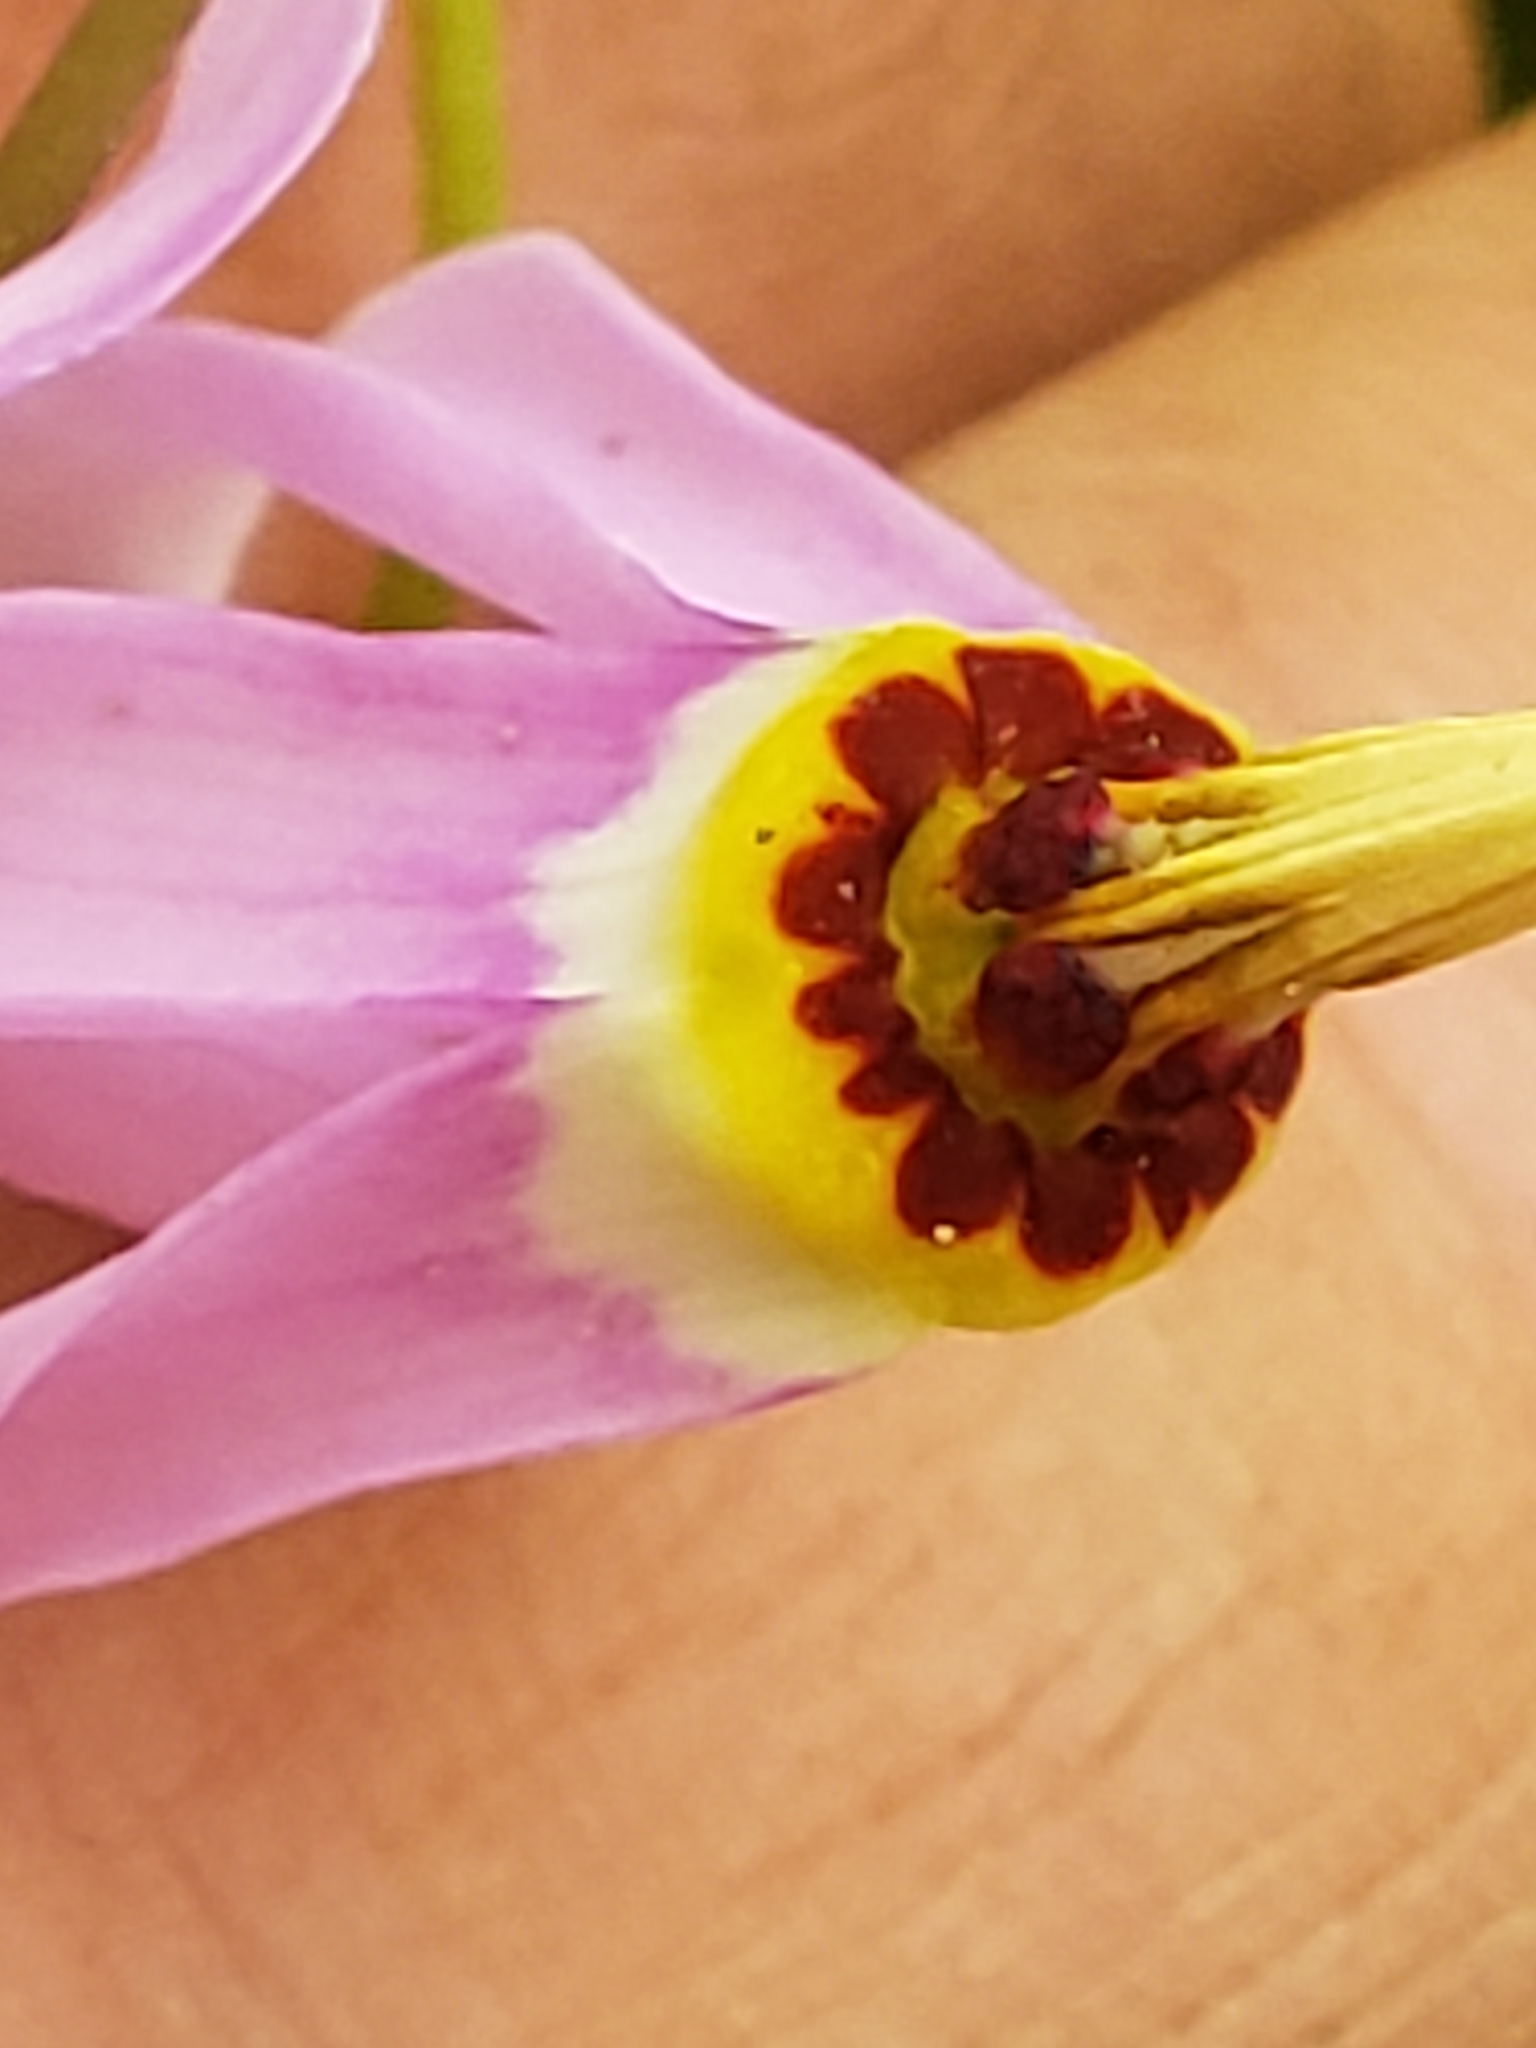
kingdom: Plantae
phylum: Tracheophyta
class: Magnoliopsida
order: Ericales
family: Primulaceae
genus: Dodecatheon
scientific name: Dodecatheon meadia
